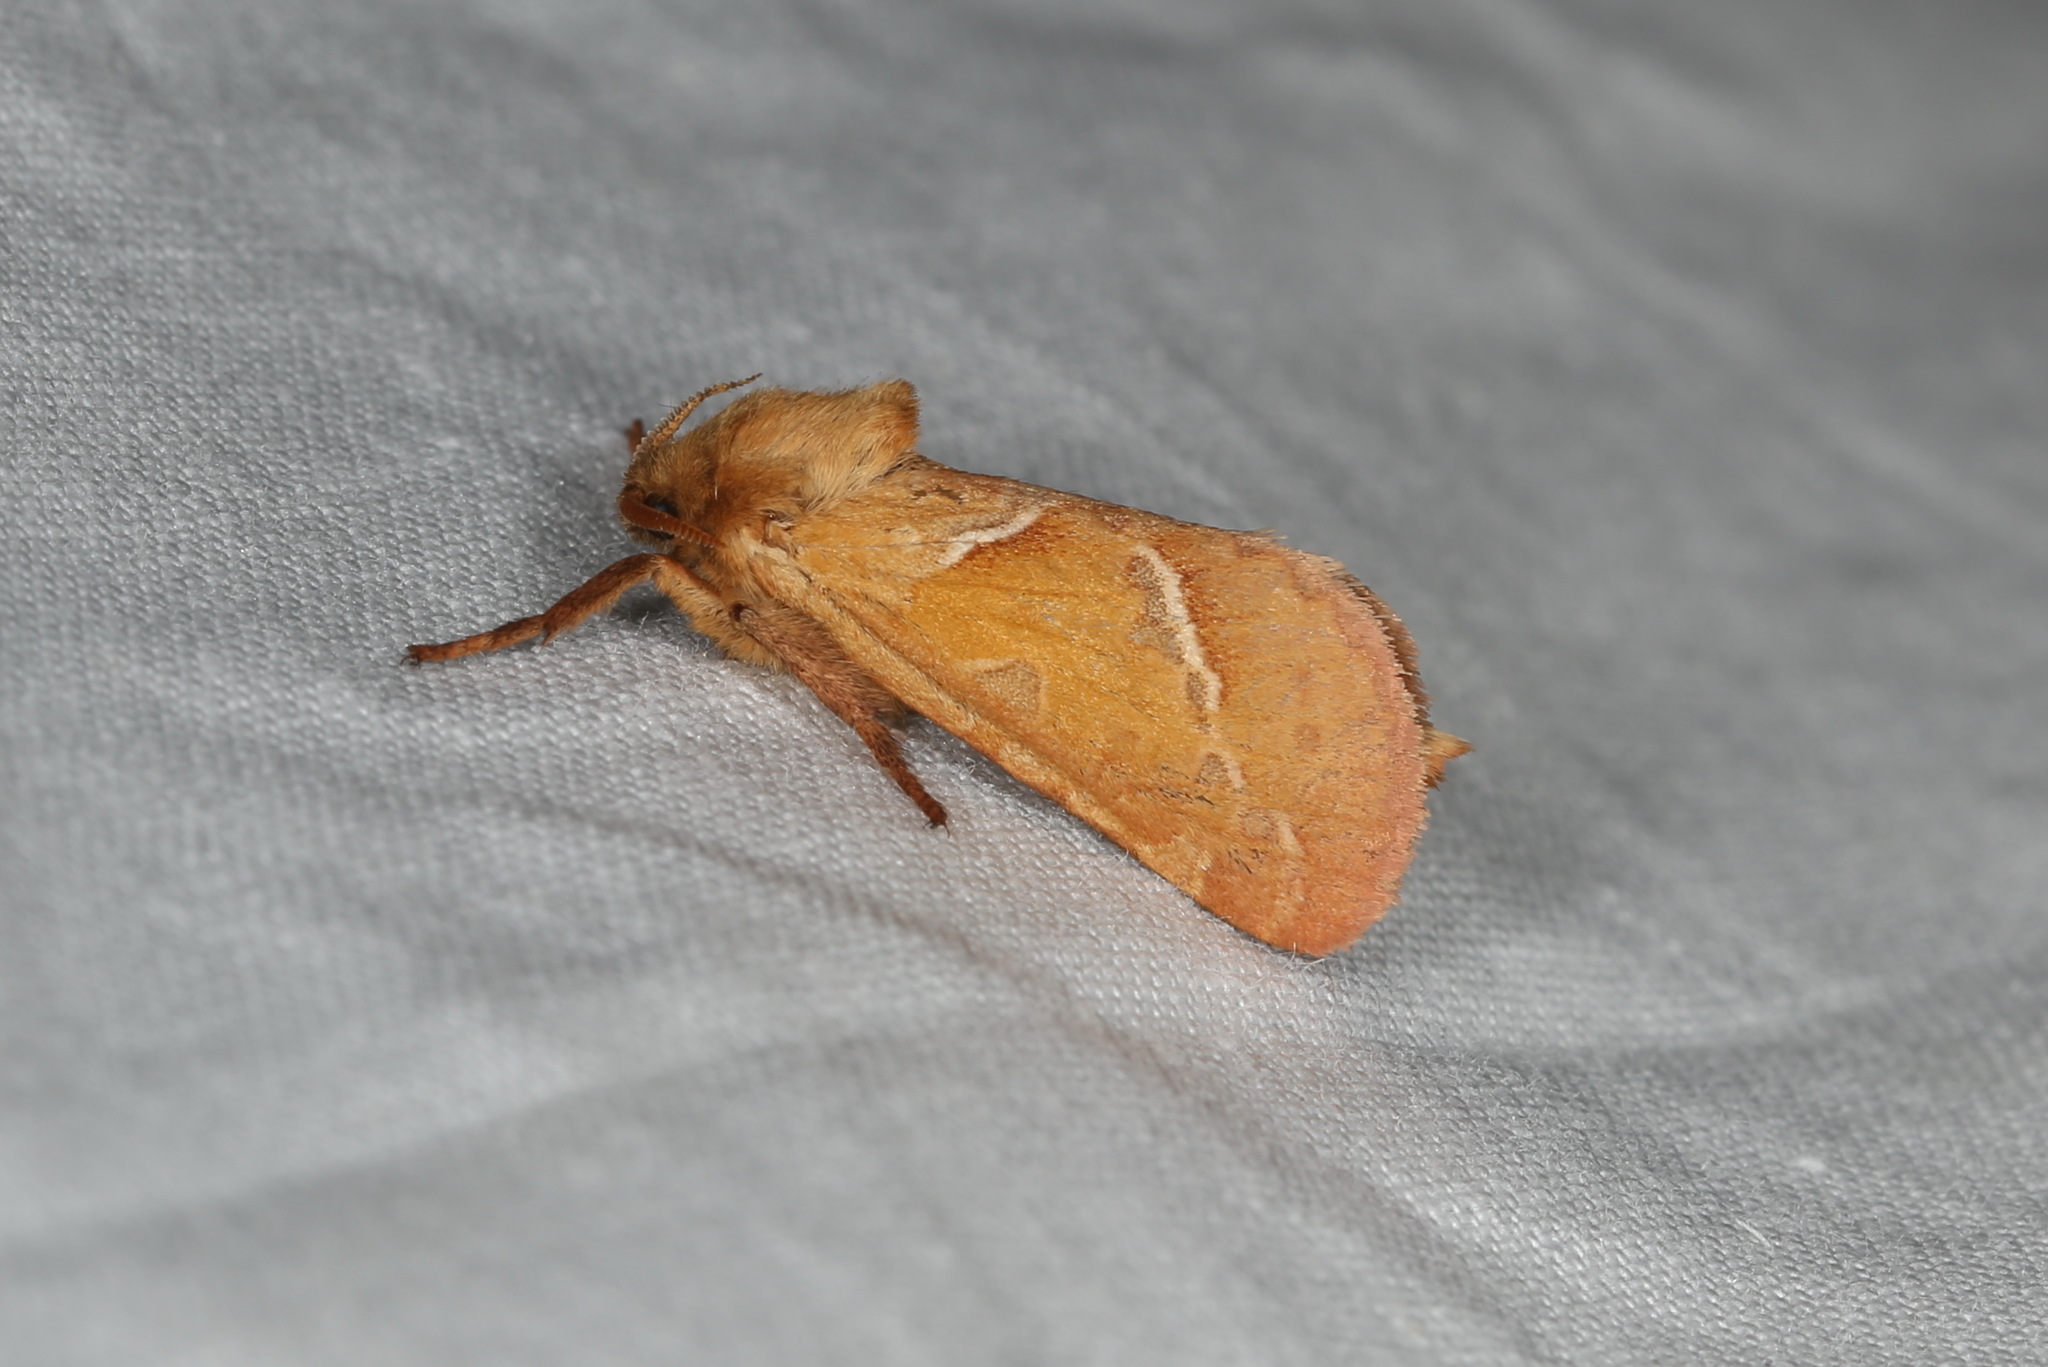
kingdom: Animalia
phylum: Arthropoda
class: Insecta
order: Lepidoptera
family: Hepialidae
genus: Triodia
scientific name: Triodia sylvina
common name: Orange swift
